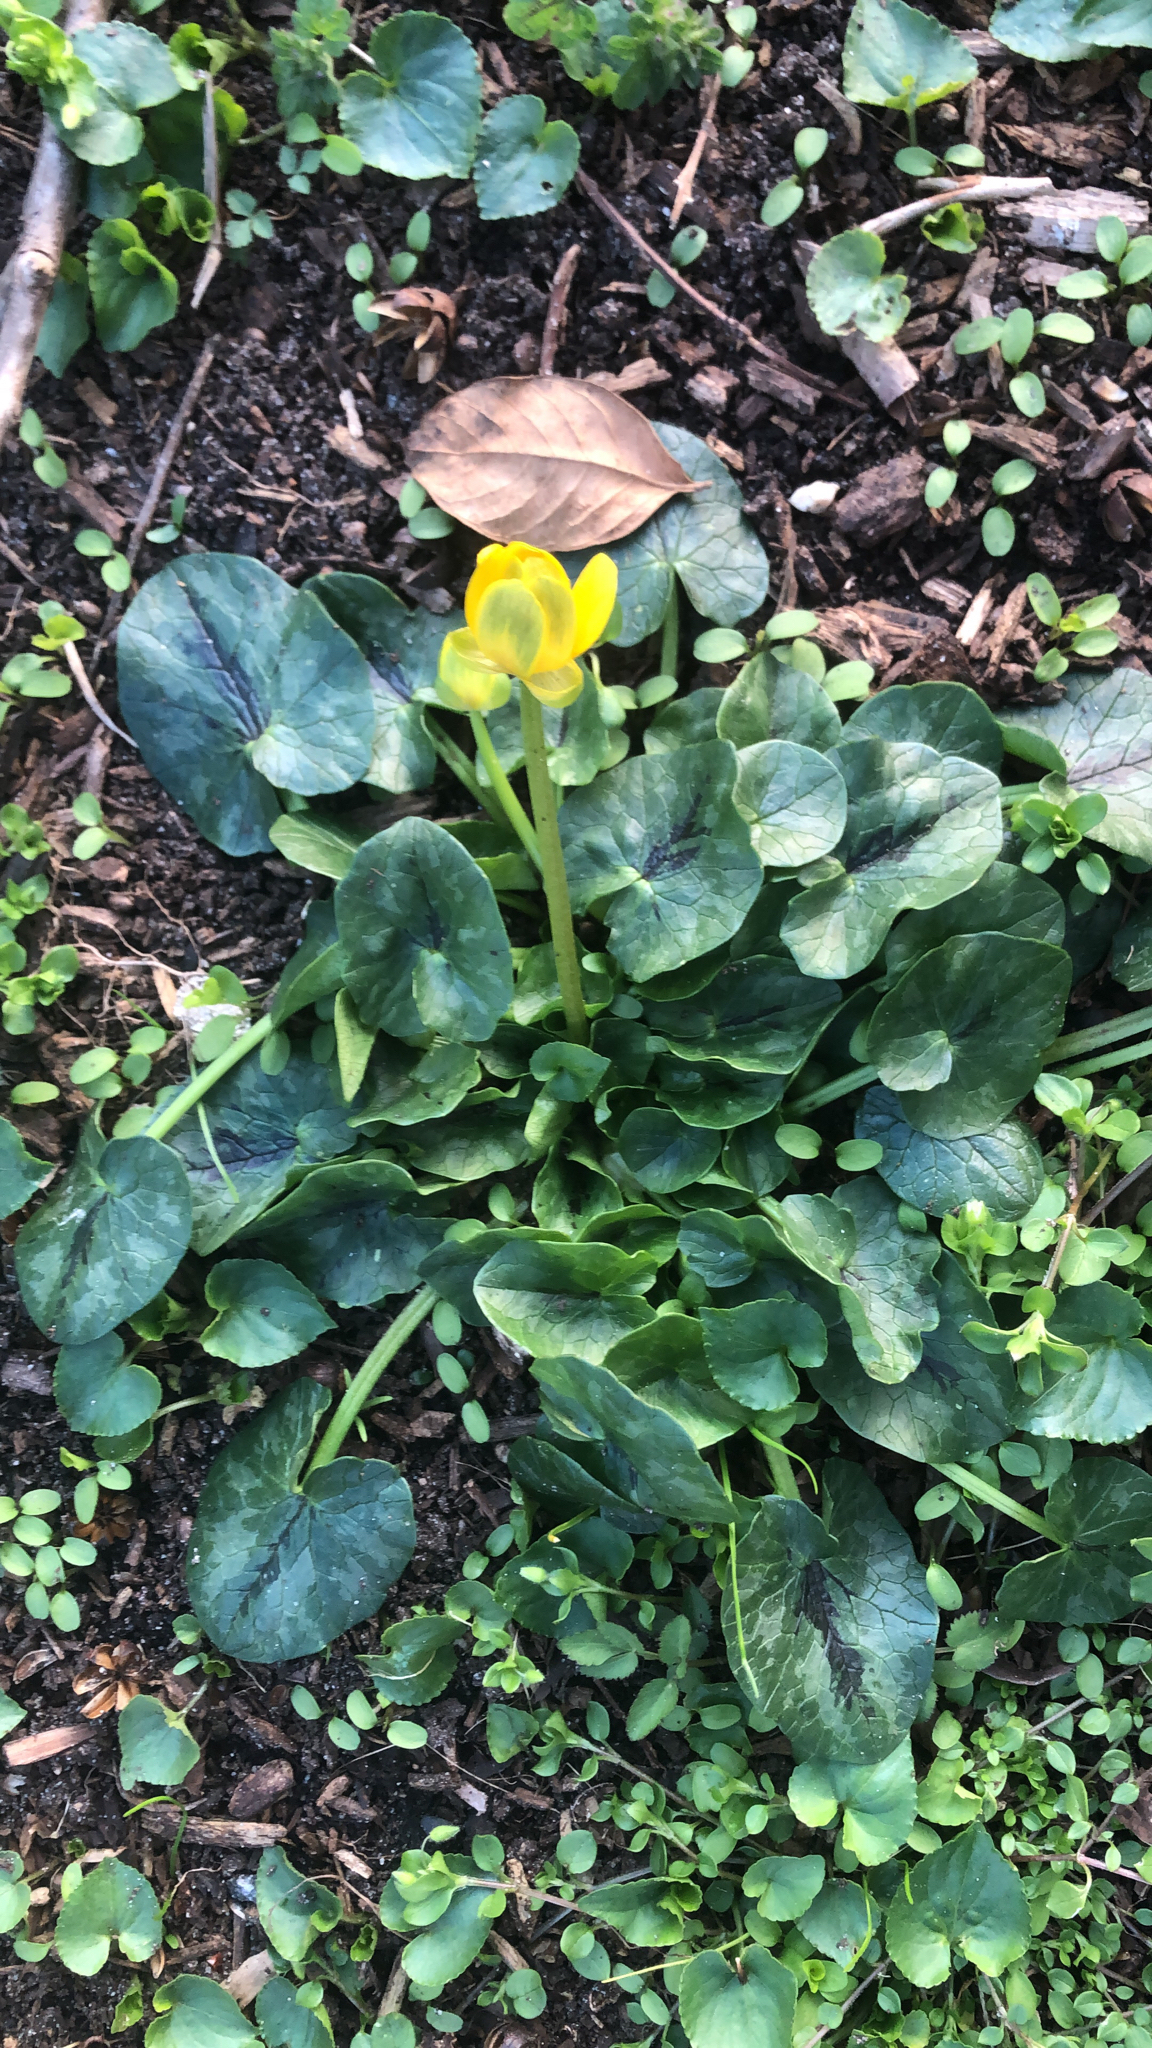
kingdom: Plantae
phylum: Tracheophyta
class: Magnoliopsida
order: Ranunculales
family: Ranunculaceae
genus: Ficaria
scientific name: Ficaria verna
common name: Lesser celandine
